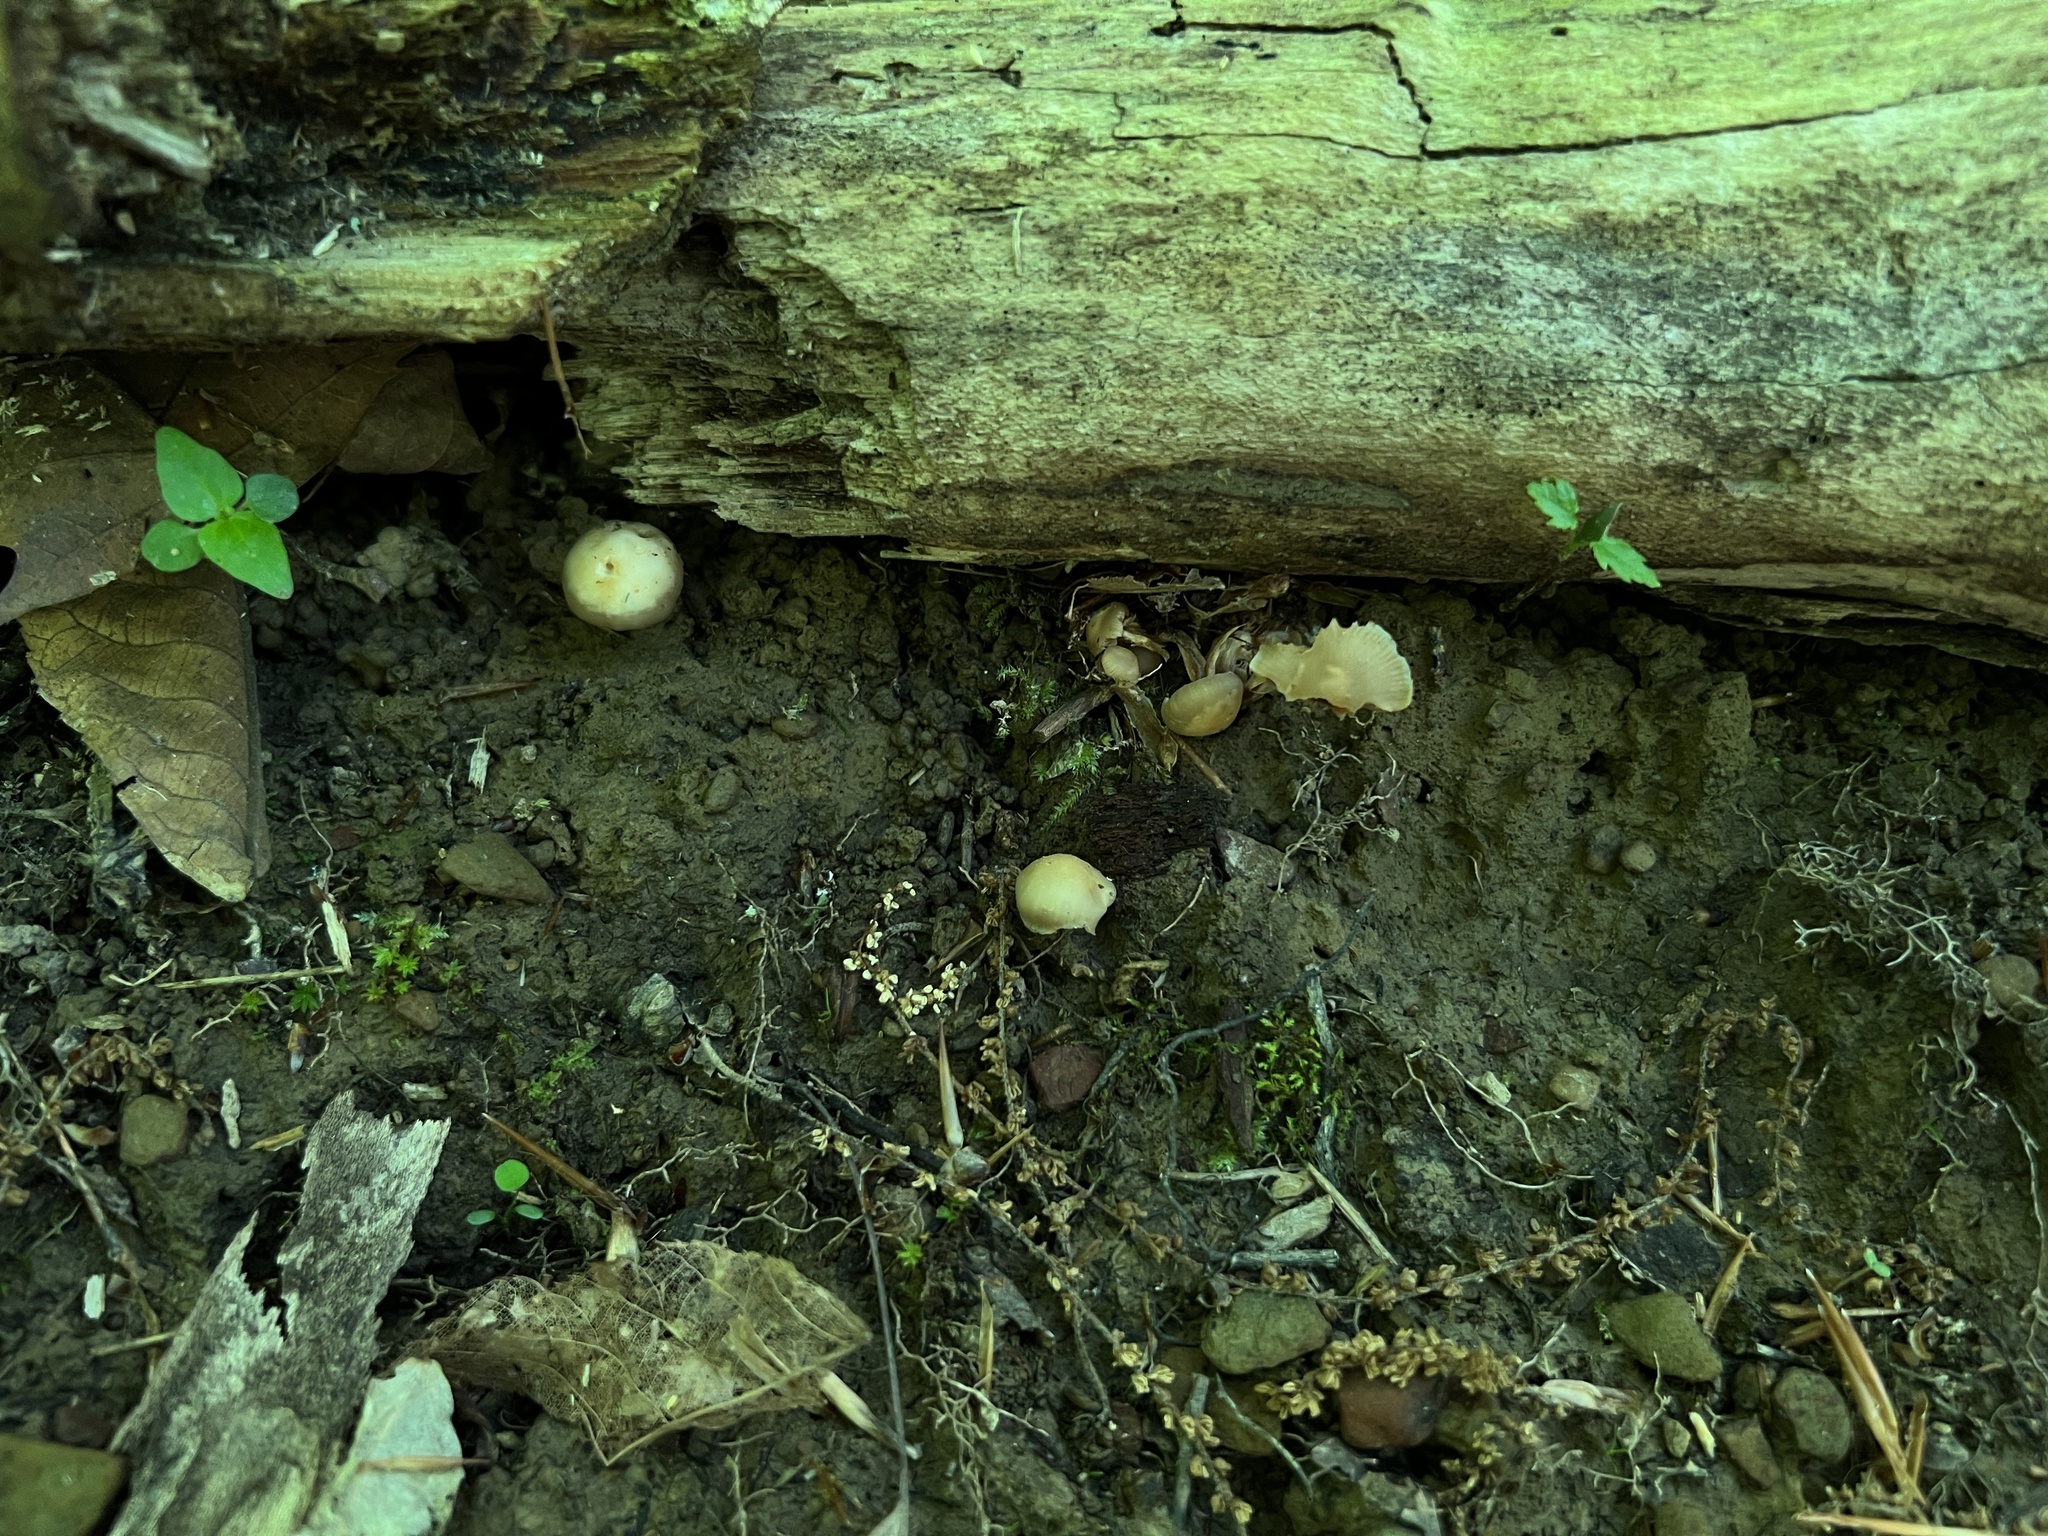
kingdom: Fungi
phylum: Basidiomycota
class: Agaricomycetes
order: Agaricales
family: Strophariaceae
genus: Kuehneromyces
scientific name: Kuehneromyces marginellus
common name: Sheathed woodtuft
